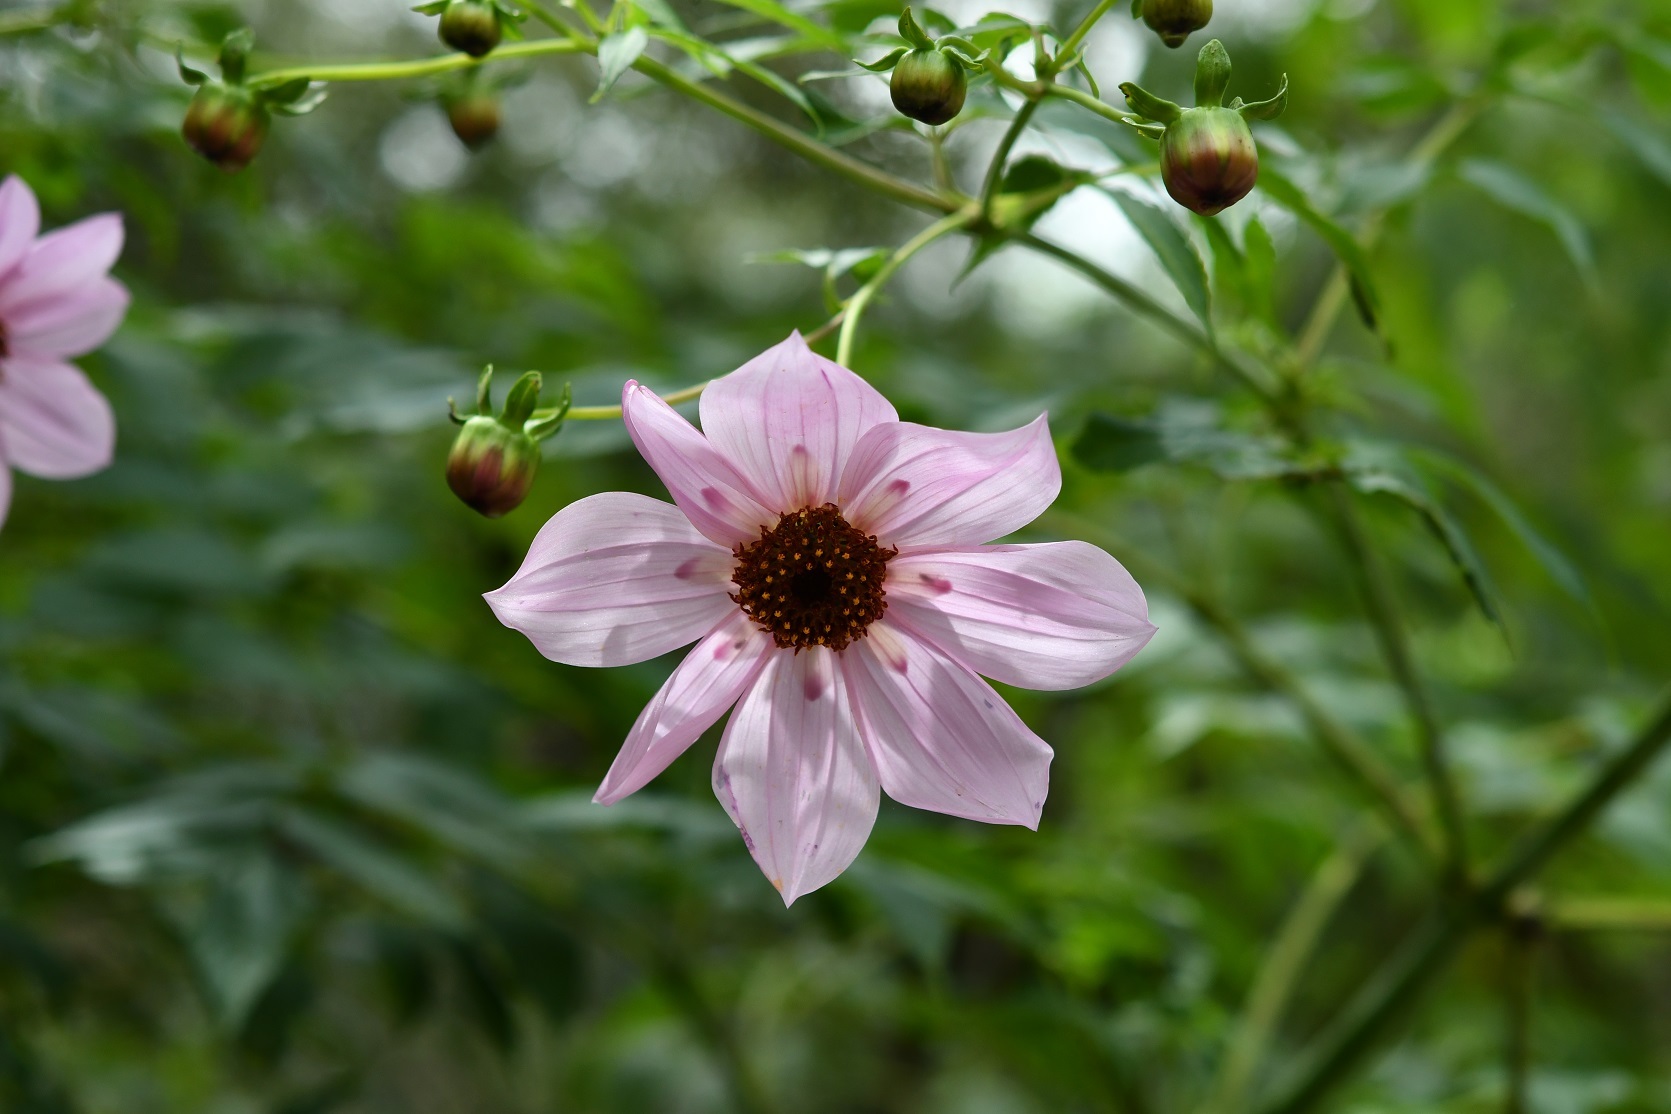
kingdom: Plantae
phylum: Tracheophyta
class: Magnoliopsida
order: Asterales
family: Asteraceae
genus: Dahlia
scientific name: Dahlia imperialis
